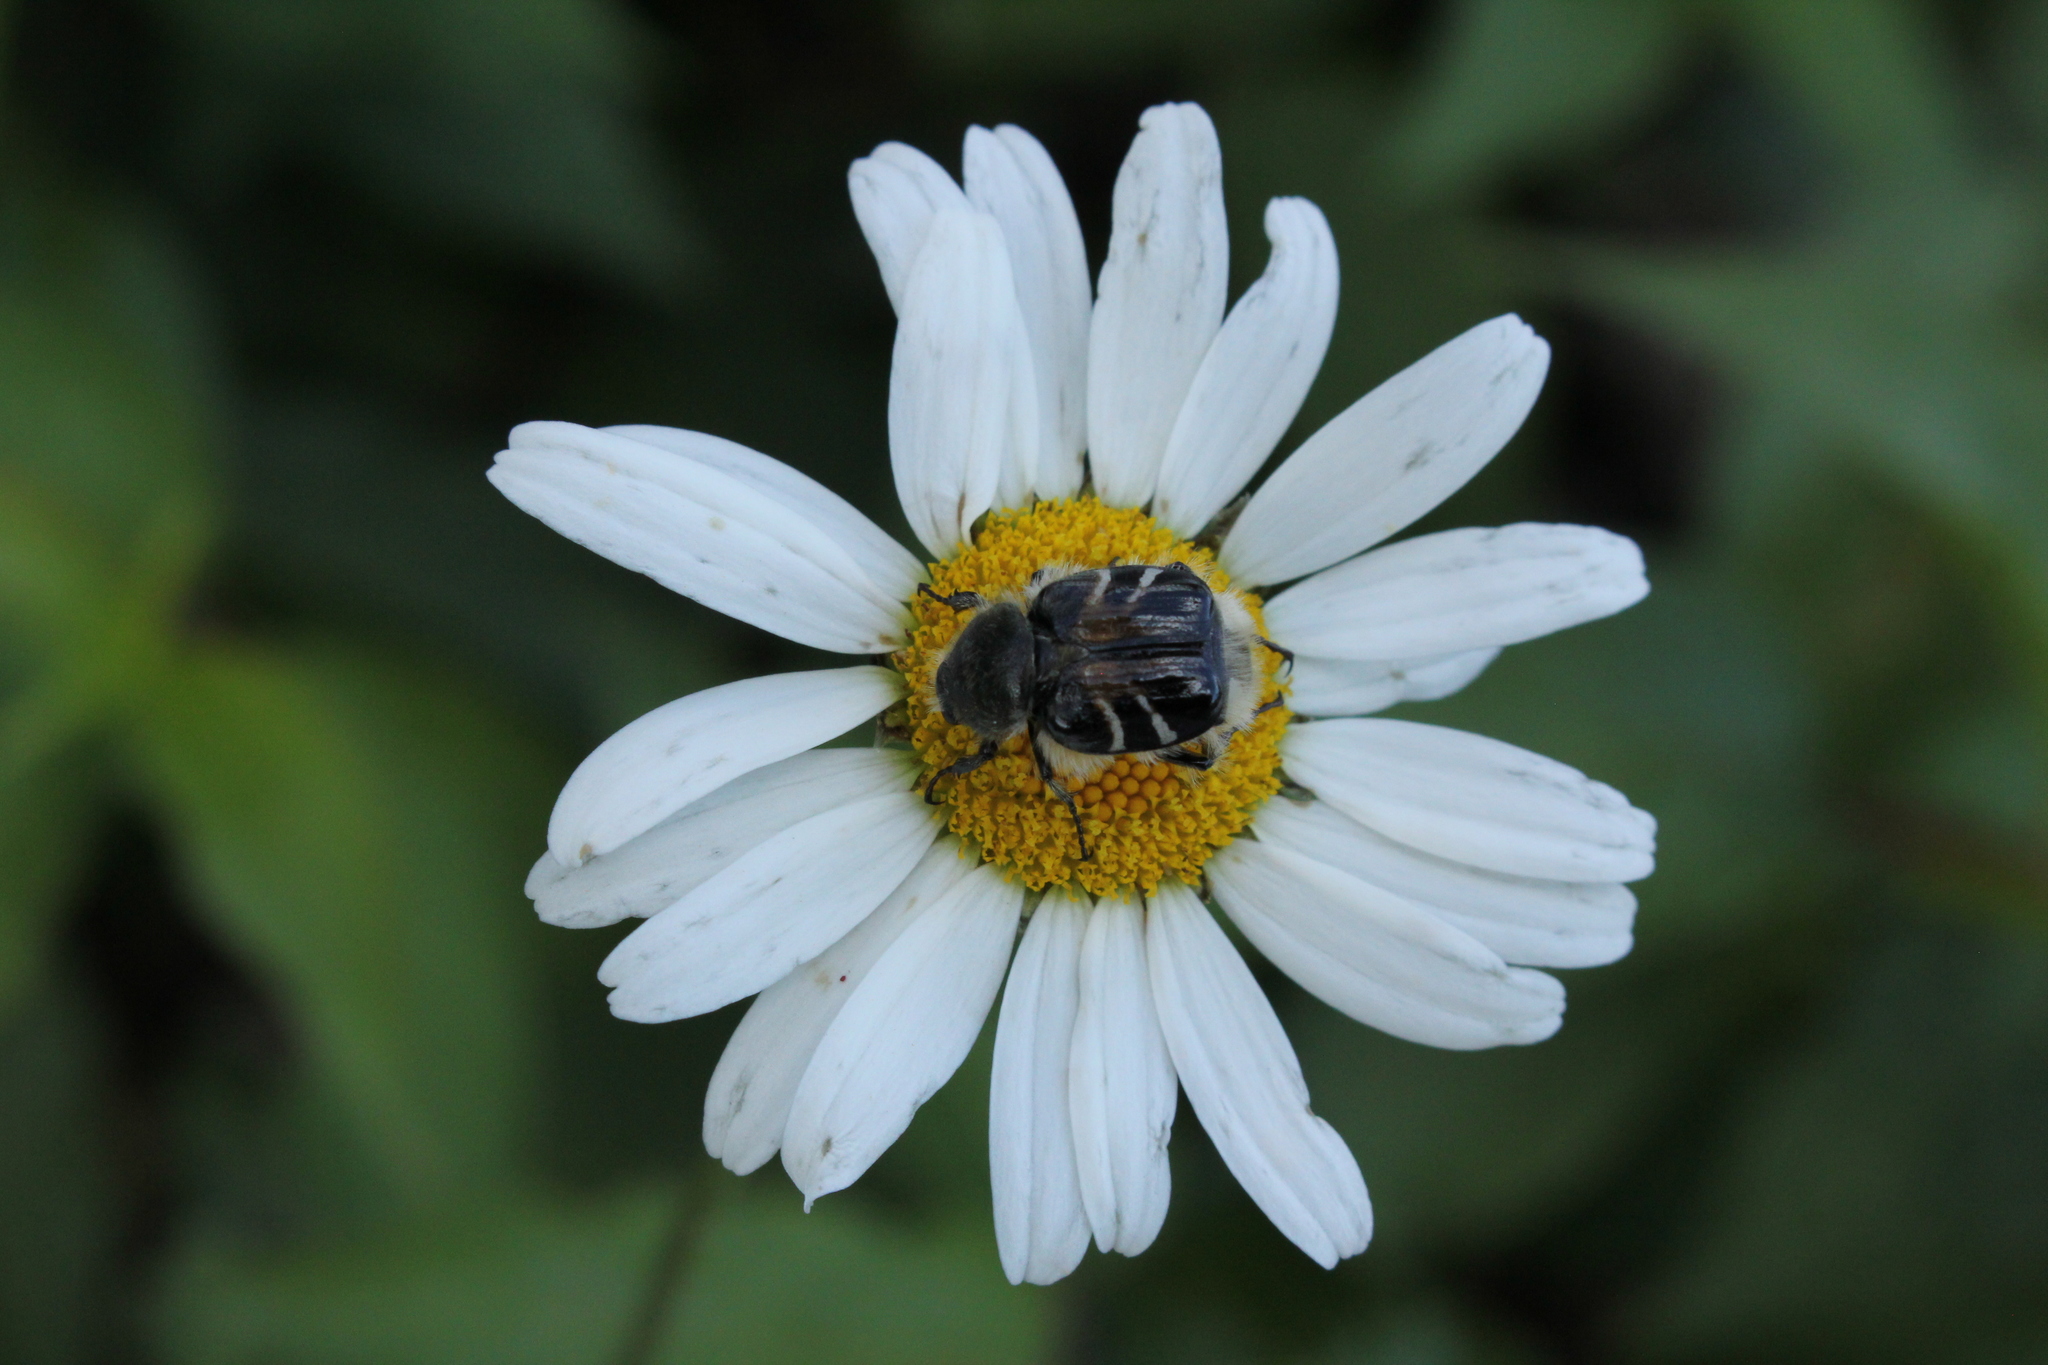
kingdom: Animalia
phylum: Arthropoda
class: Insecta
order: Coleoptera
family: Scarabaeidae
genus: Trichiotinus
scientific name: Trichiotinus assimilis
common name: Bee-mimic beetle
